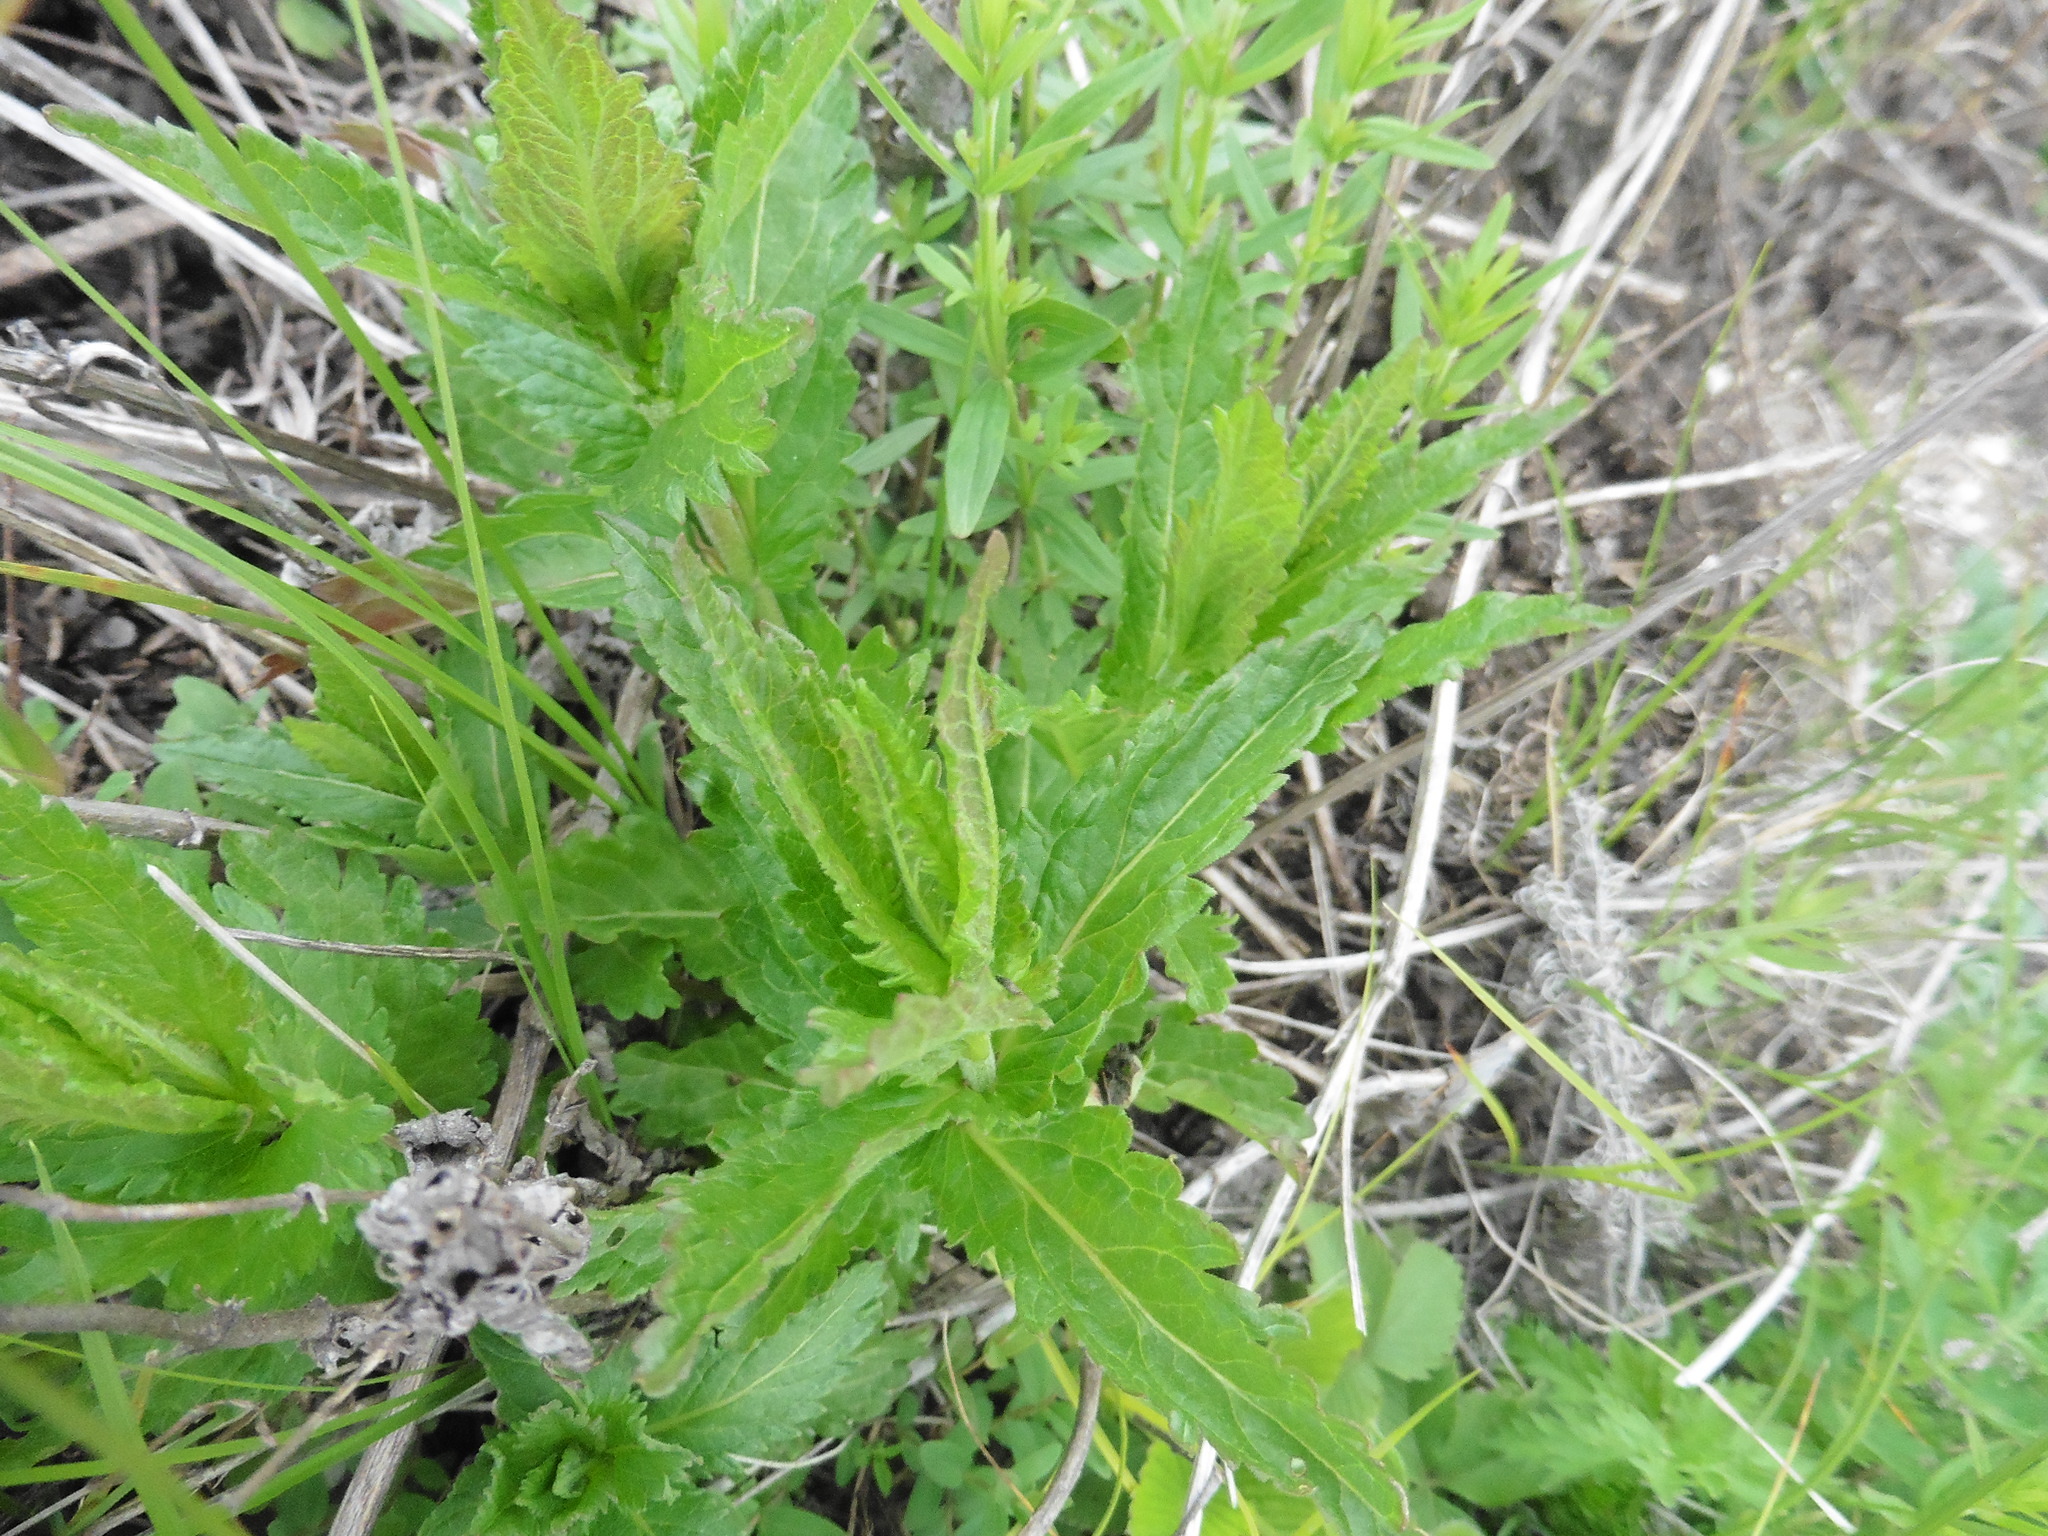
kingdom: Plantae
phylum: Tracheophyta
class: Magnoliopsida
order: Lamiales
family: Plantaginaceae
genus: Veronica
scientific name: Veronica teucrium
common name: Large speedwell
